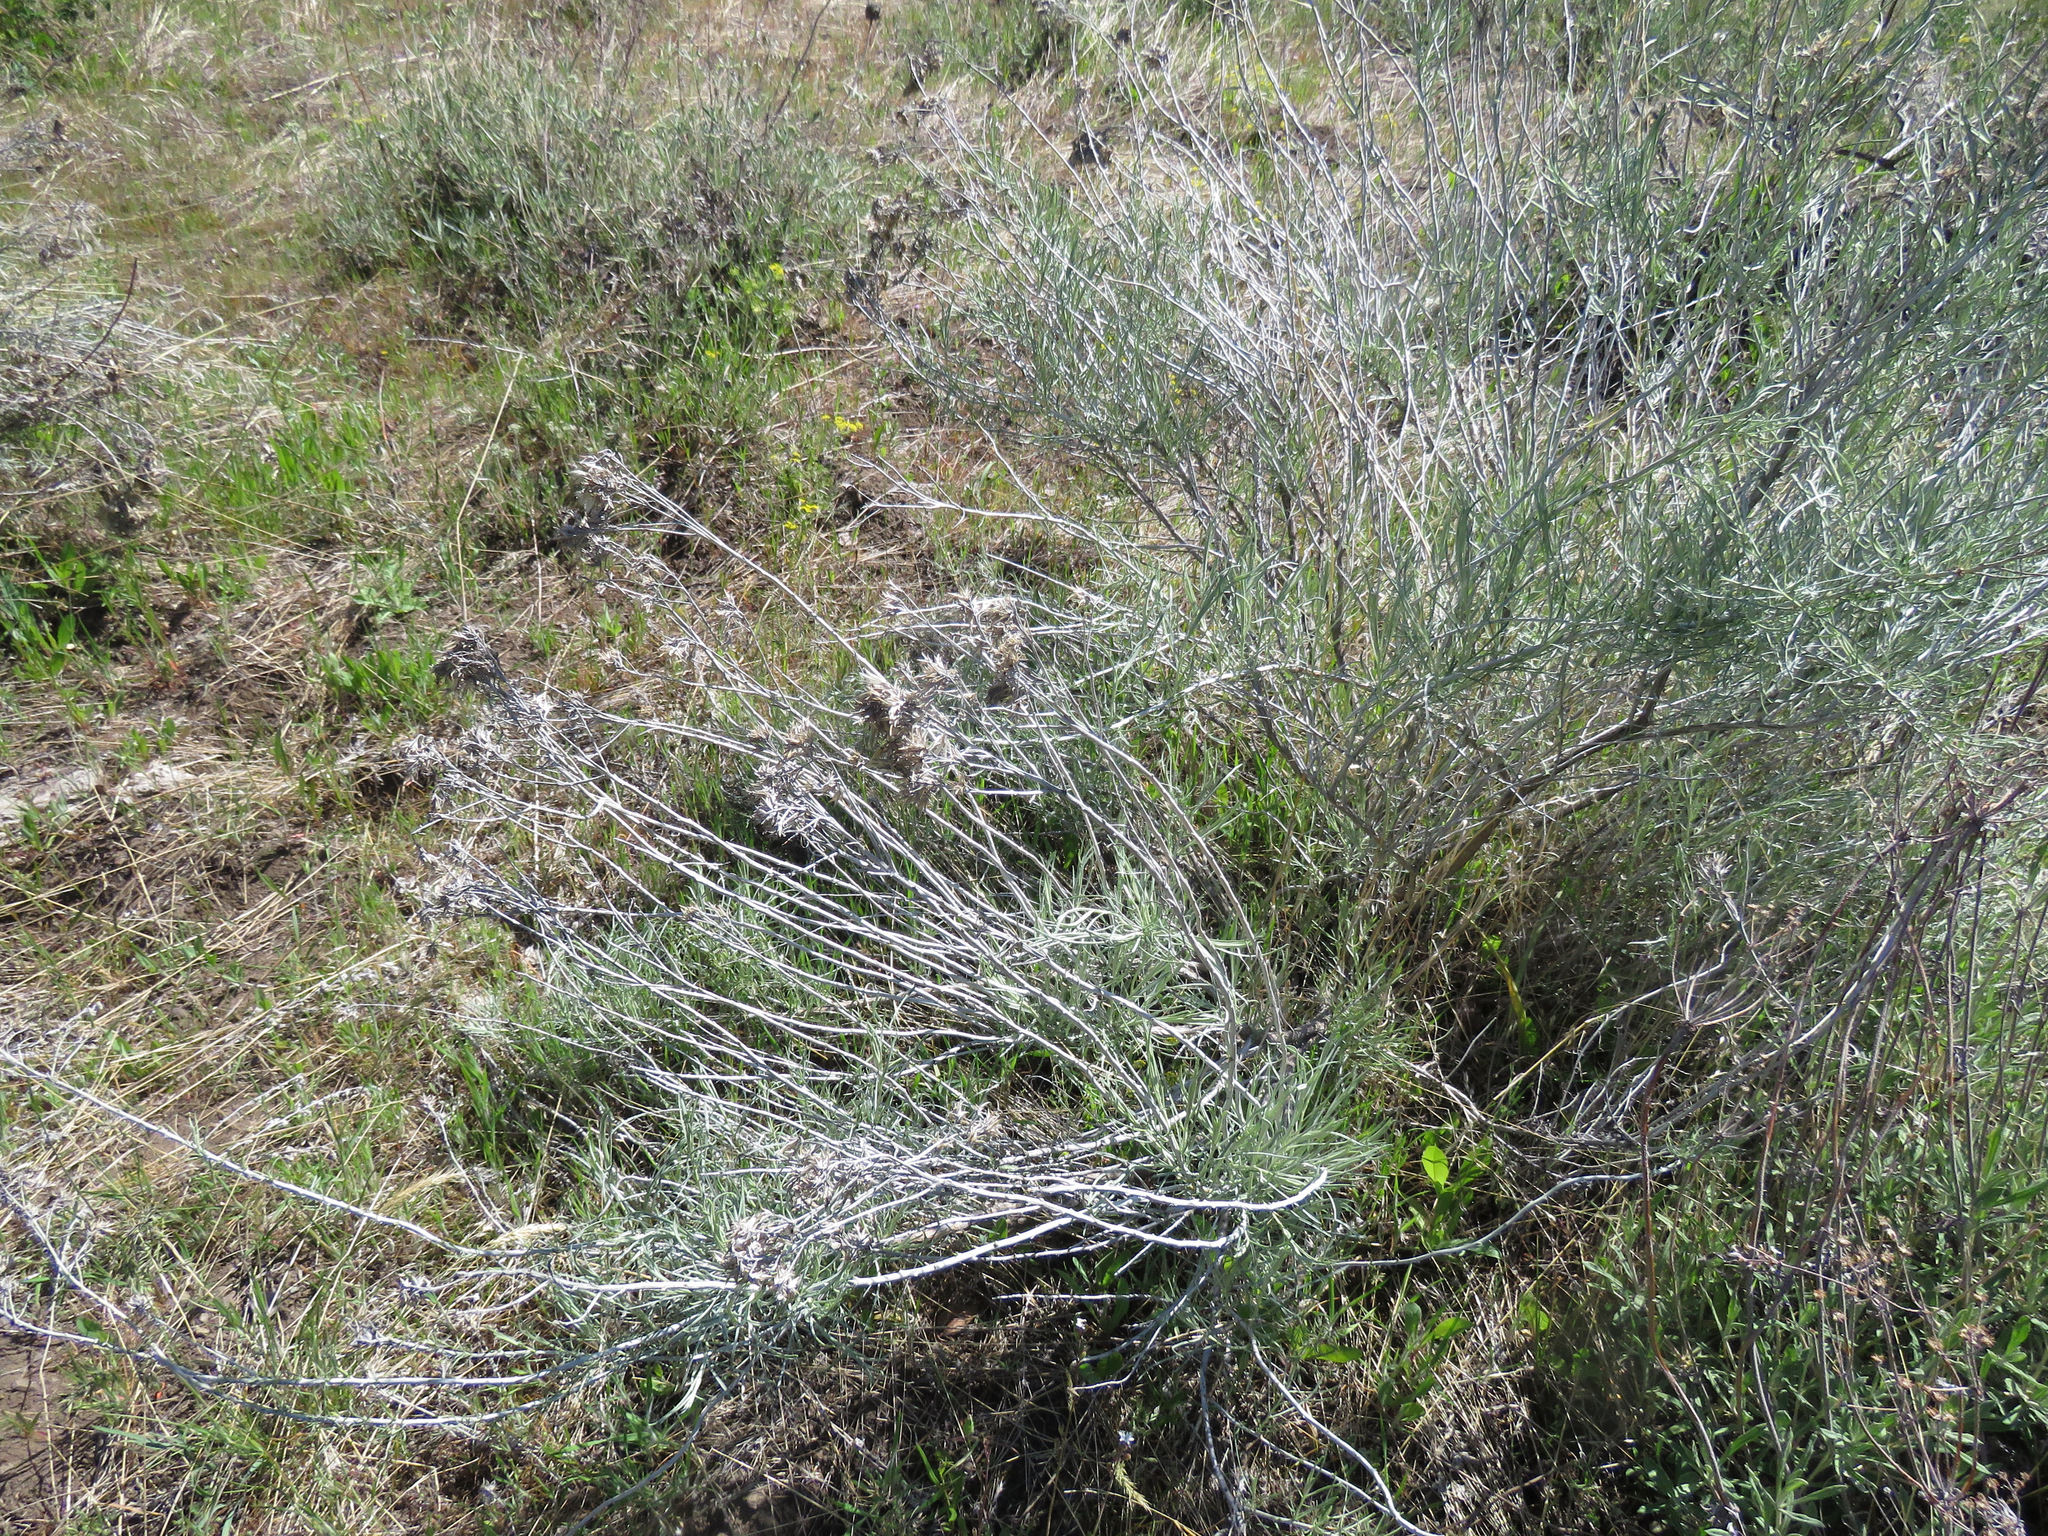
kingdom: Plantae
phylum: Tracheophyta
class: Magnoliopsida
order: Asterales
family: Asteraceae
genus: Ericameria
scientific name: Ericameria nauseosa
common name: Rubber rabbitbrush
